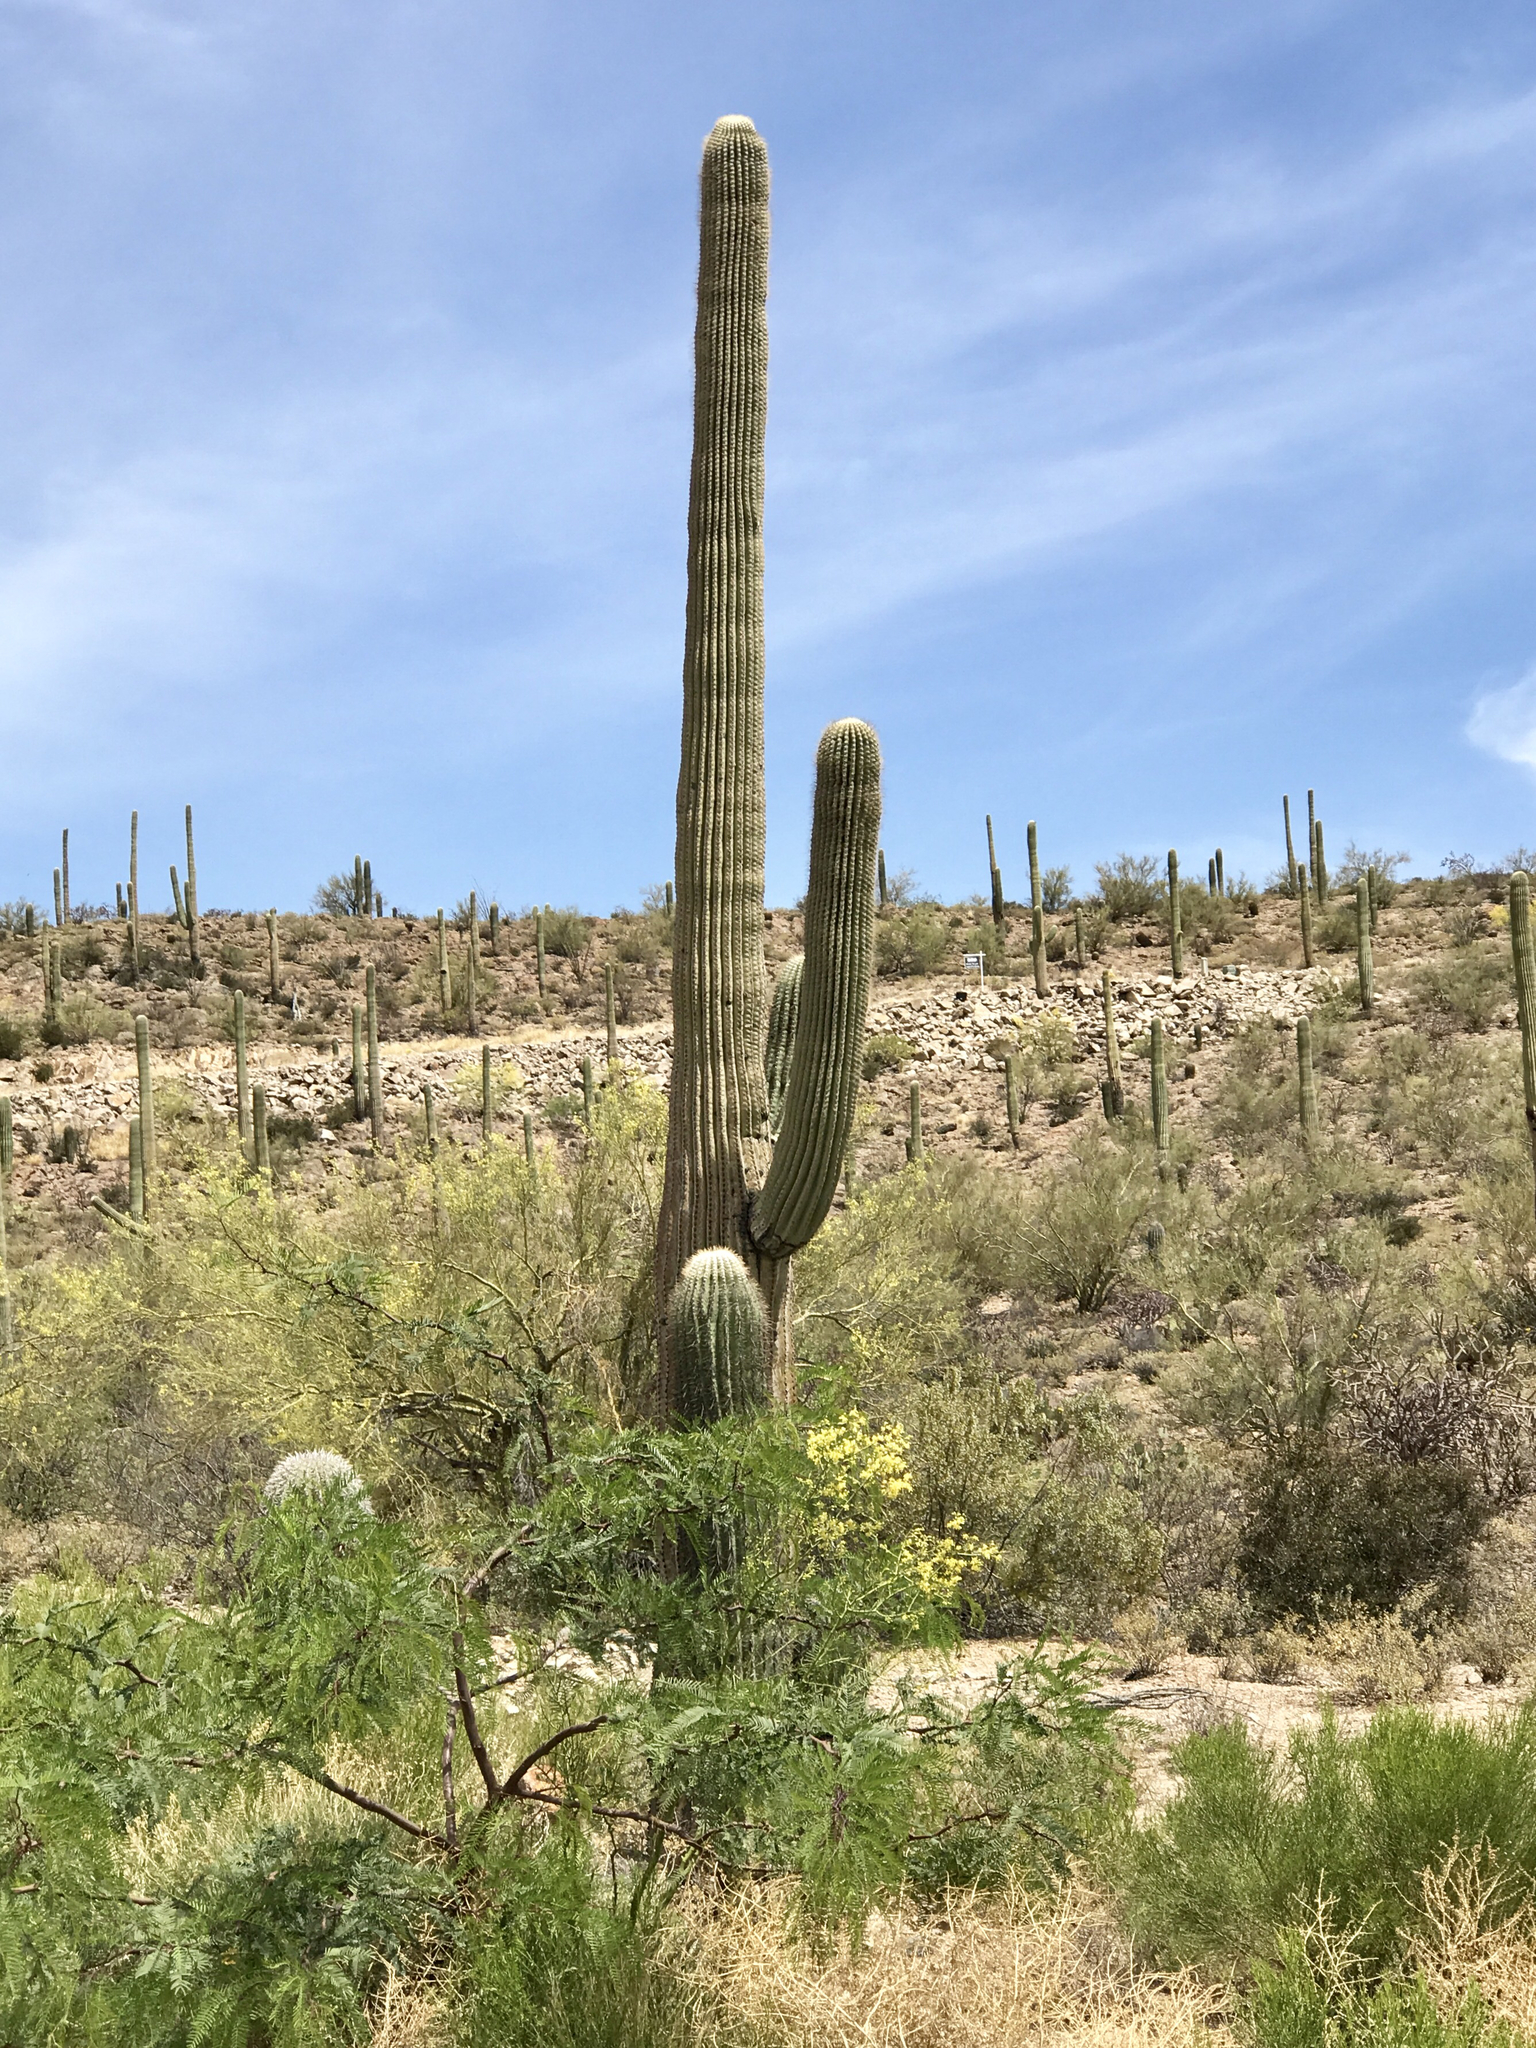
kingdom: Plantae
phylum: Tracheophyta
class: Magnoliopsida
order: Caryophyllales
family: Cactaceae
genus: Carnegiea
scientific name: Carnegiea gigantea
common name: Saguaro
